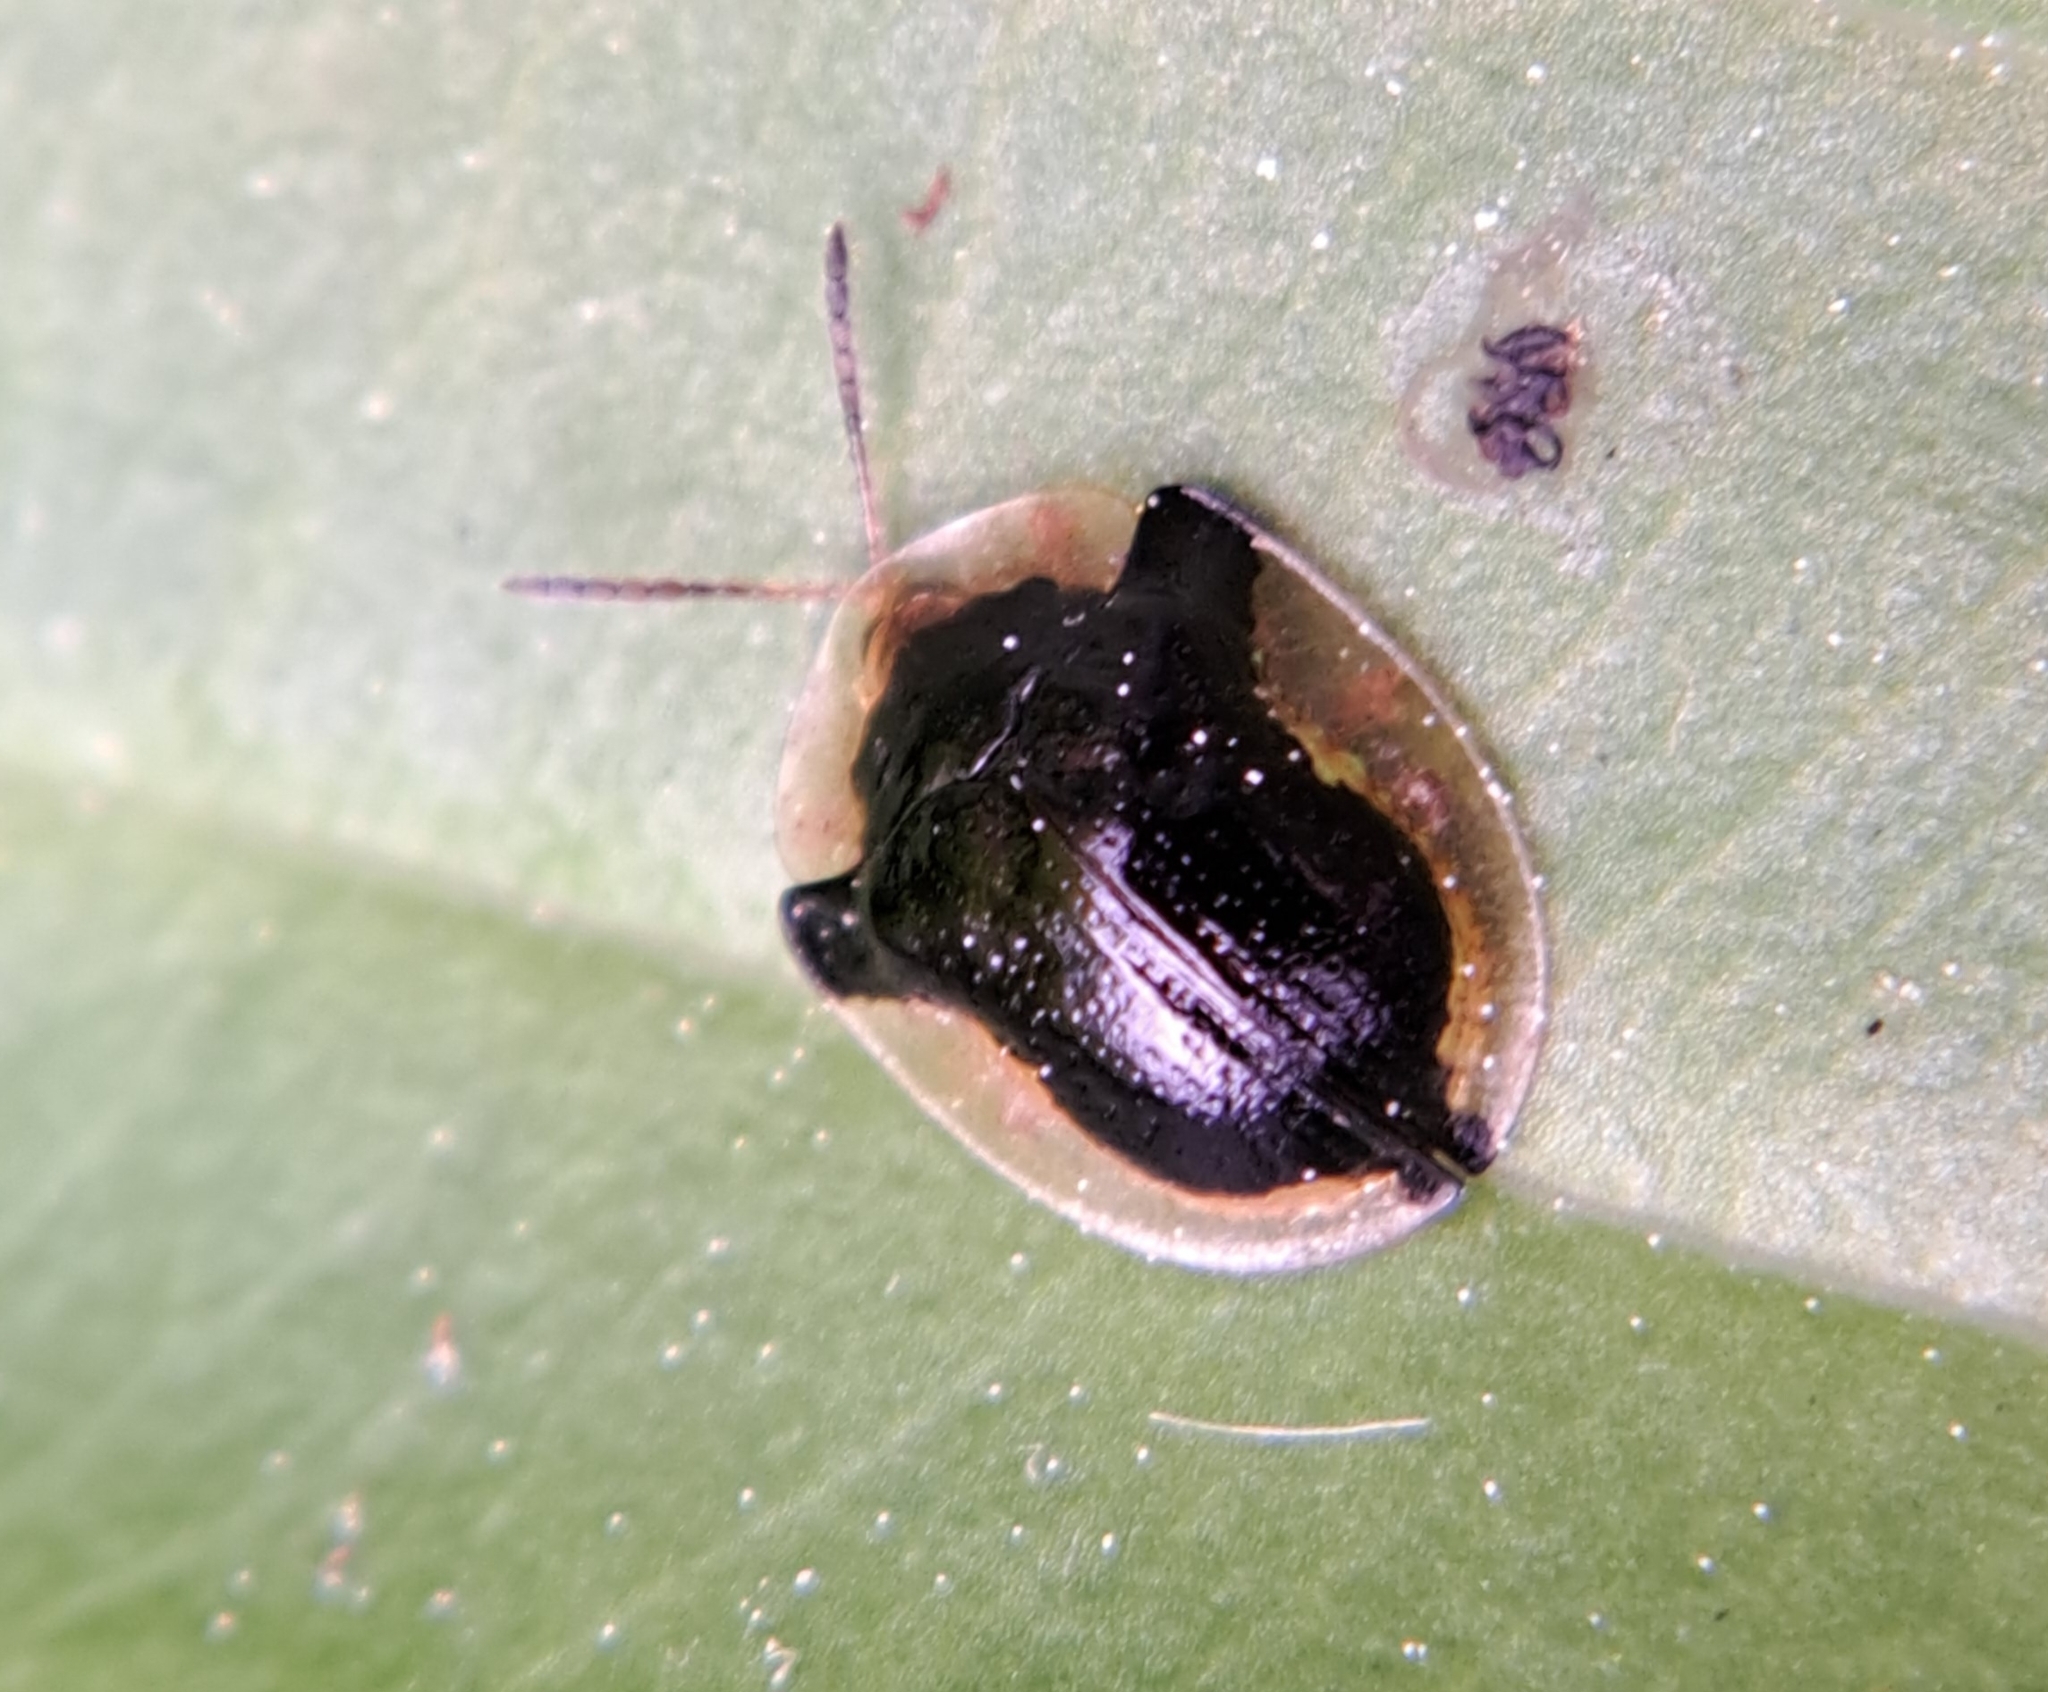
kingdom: Animalia
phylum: Arthropoda
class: Insecta
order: Coleoptera
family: Chrysomelidae
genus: Deloyala
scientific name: Deloyala guttata
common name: Mottled tortoise beetle
